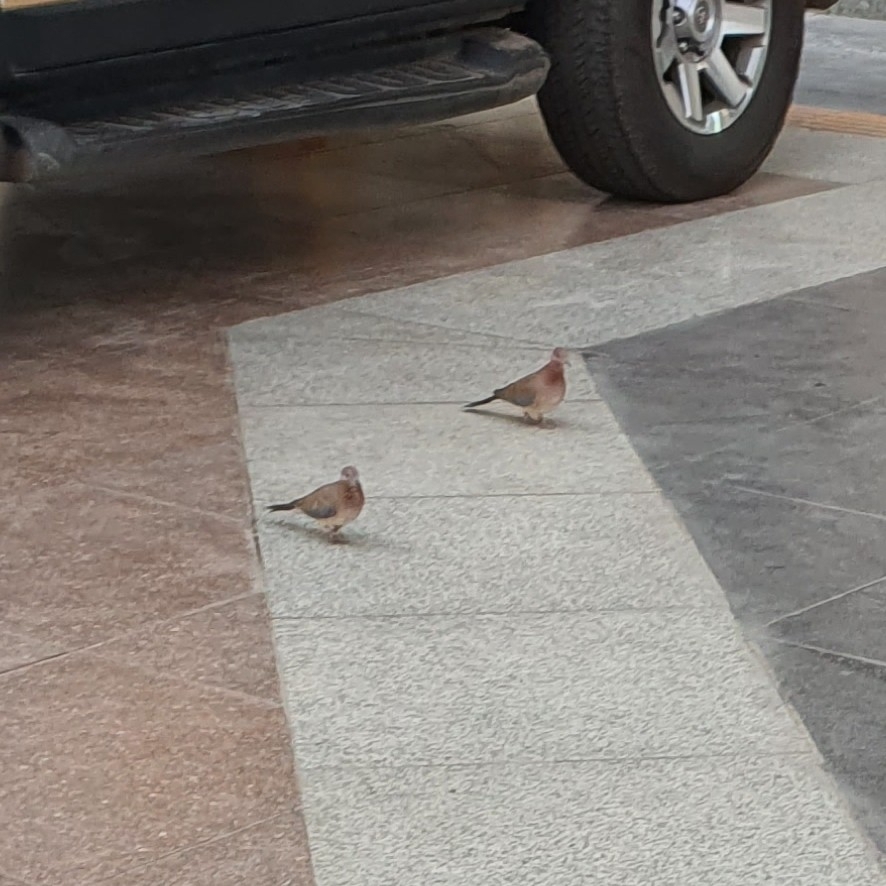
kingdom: Animalia
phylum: Chordata
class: Aves
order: Columbiformes
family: Columbidae
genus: Spilopelia
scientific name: Spilopelia senegalensis
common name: Laughing dove
